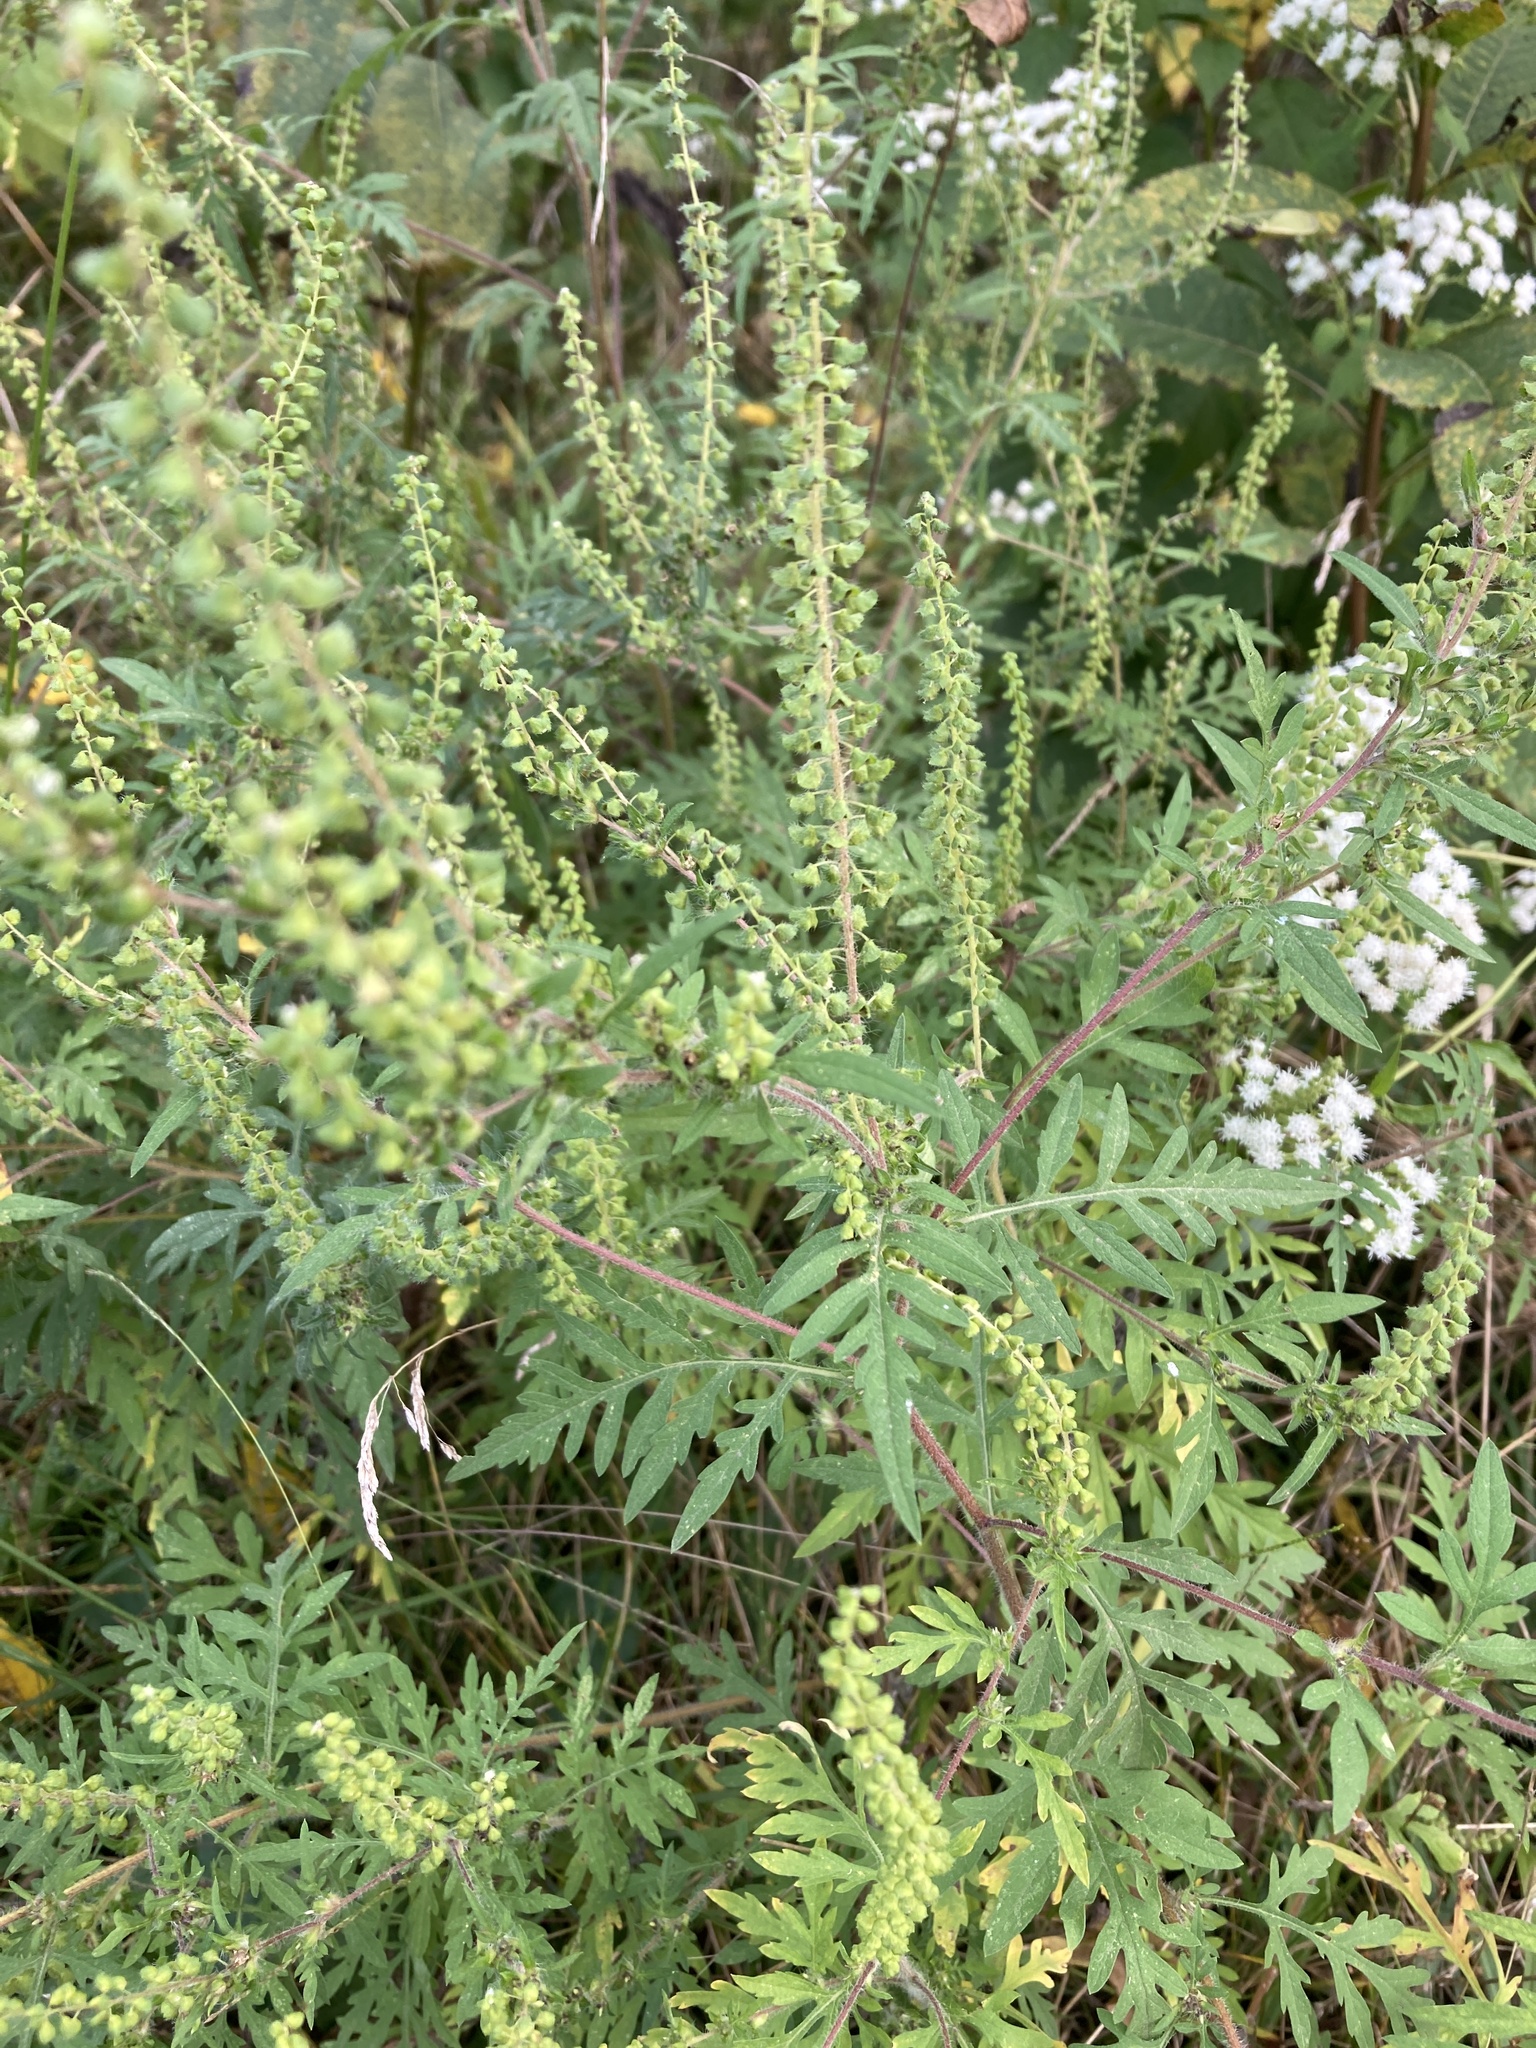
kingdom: Plantae
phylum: Tracheophyta
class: Magnoliopsida
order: Asterales
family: Asteraceae
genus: Ambrosia
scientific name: Ambrosia artemisiifolia
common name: Annual ragweed
